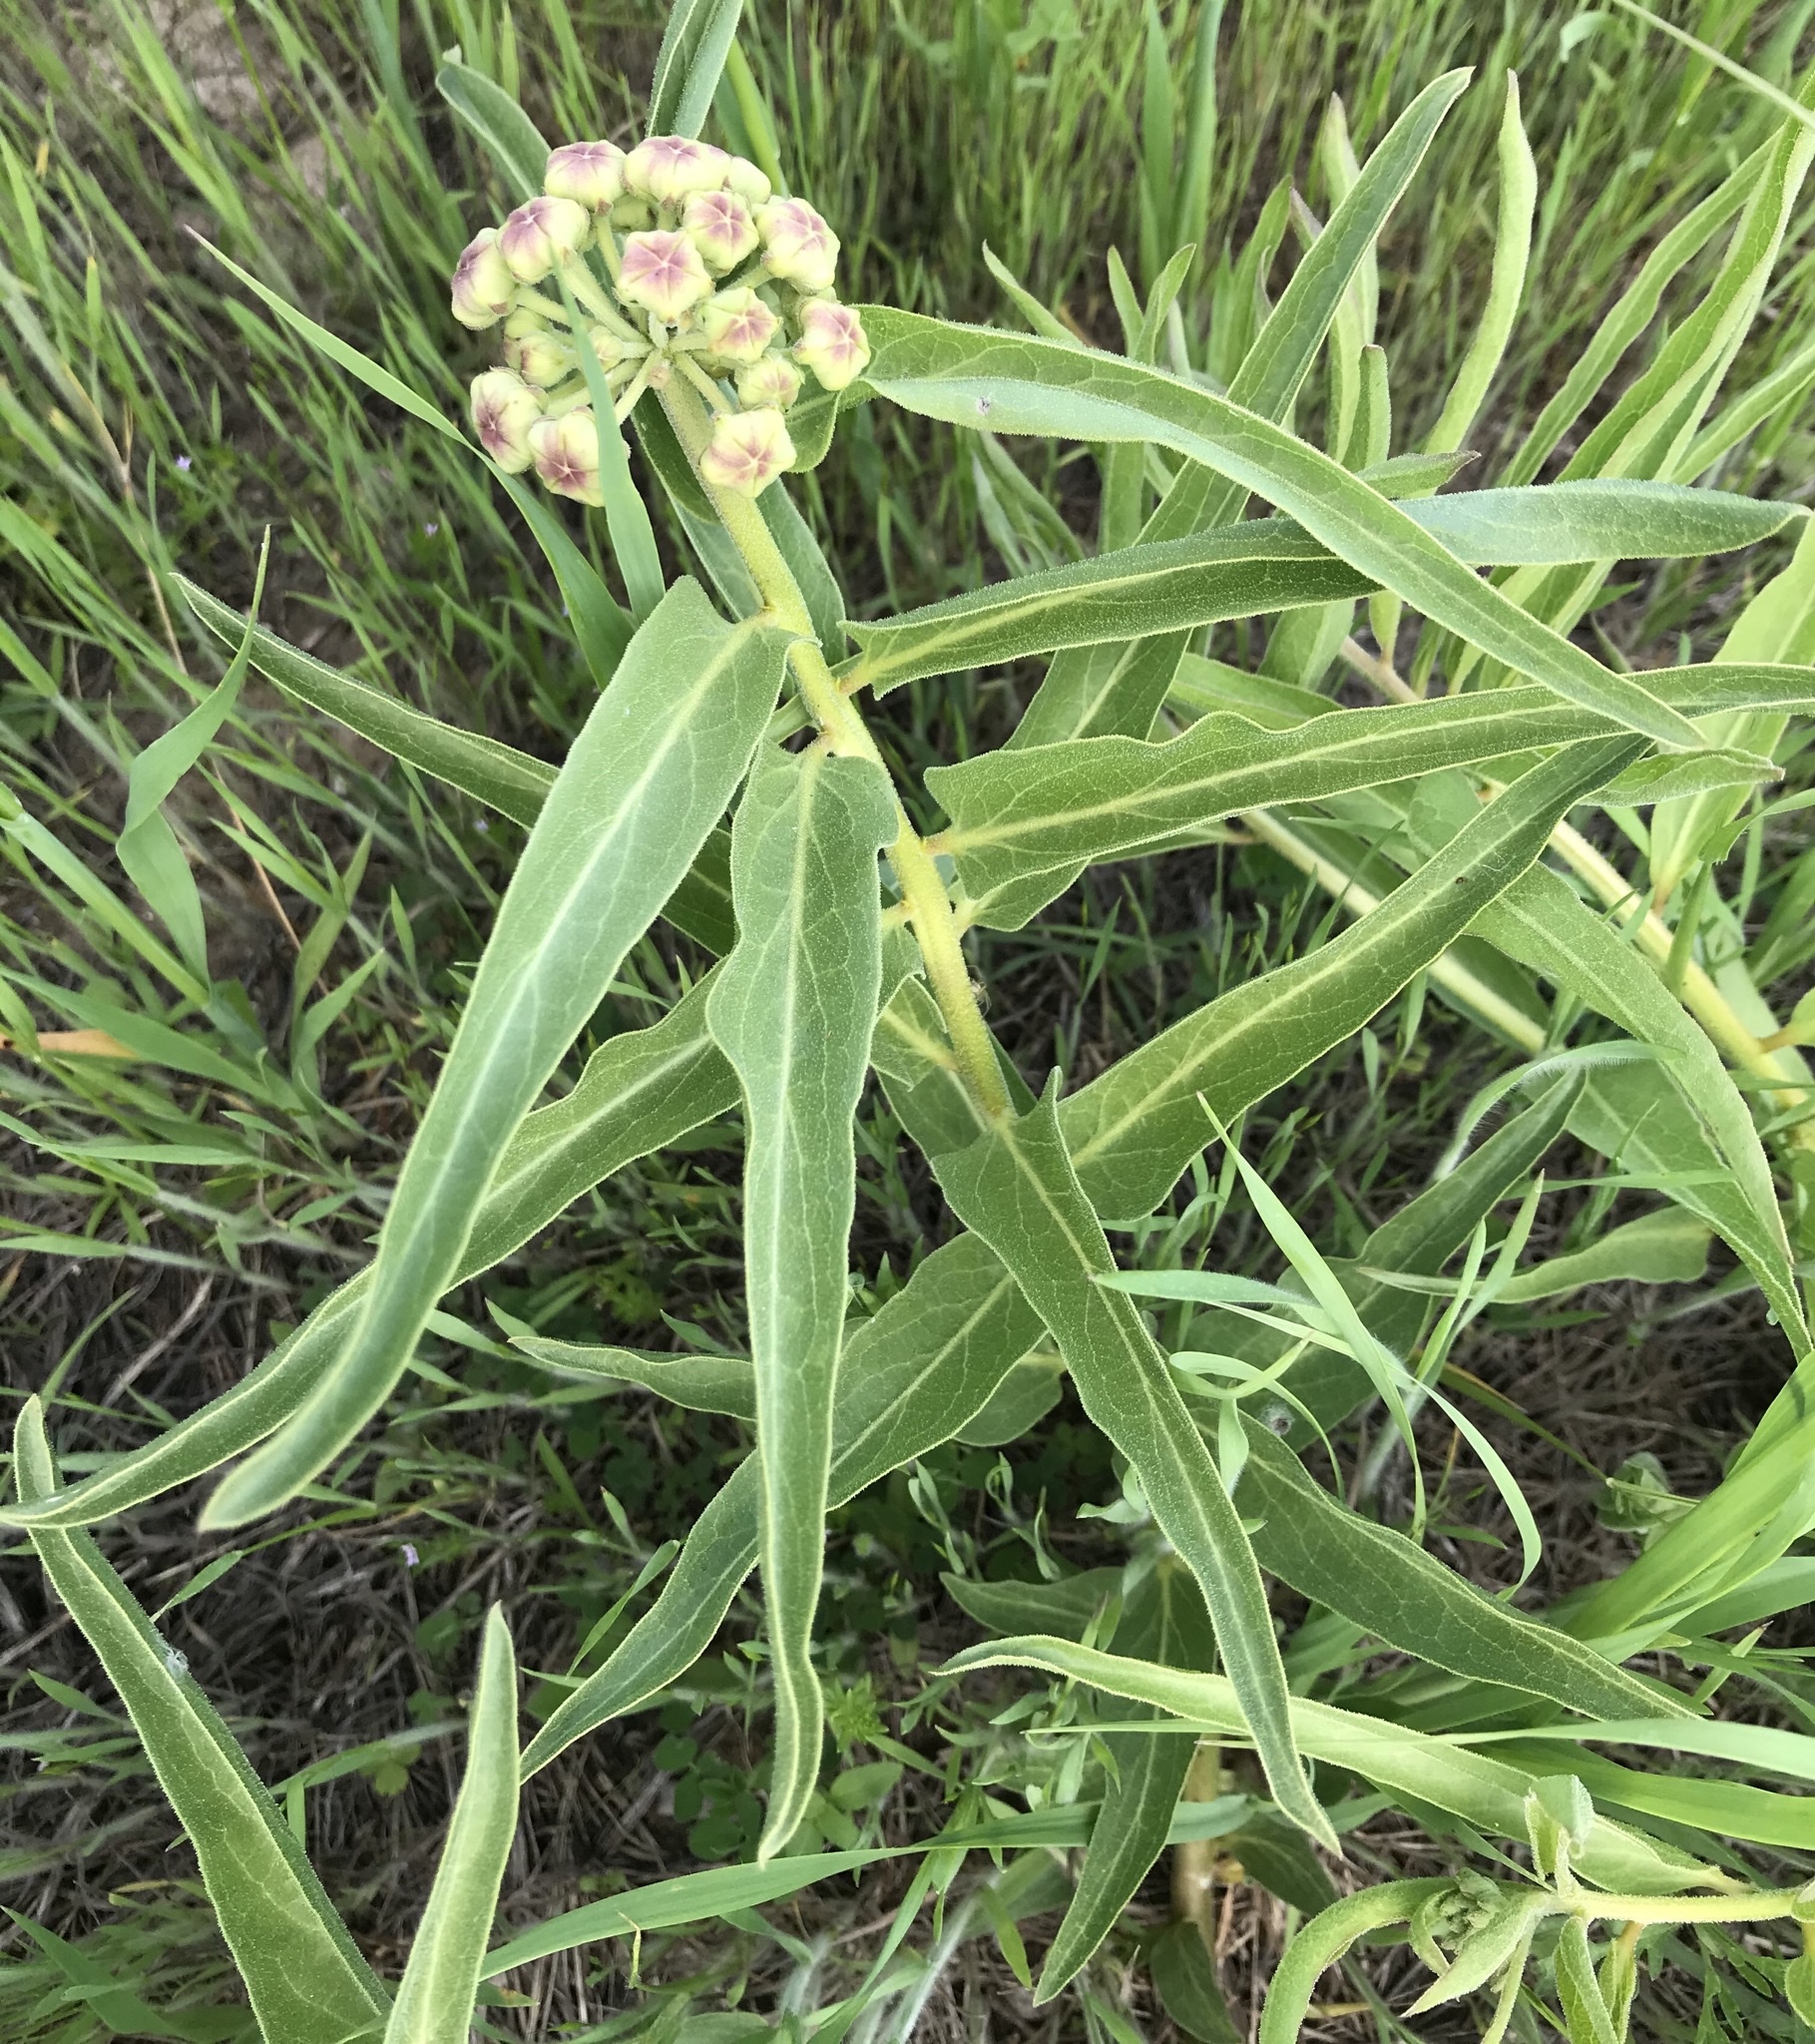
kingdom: Plantae
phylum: Tracheophyta
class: Magnoliopsida
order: Gentianales
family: Apocynaceae
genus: Asclepias
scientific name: Asclepias asperula
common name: Antelope horns
